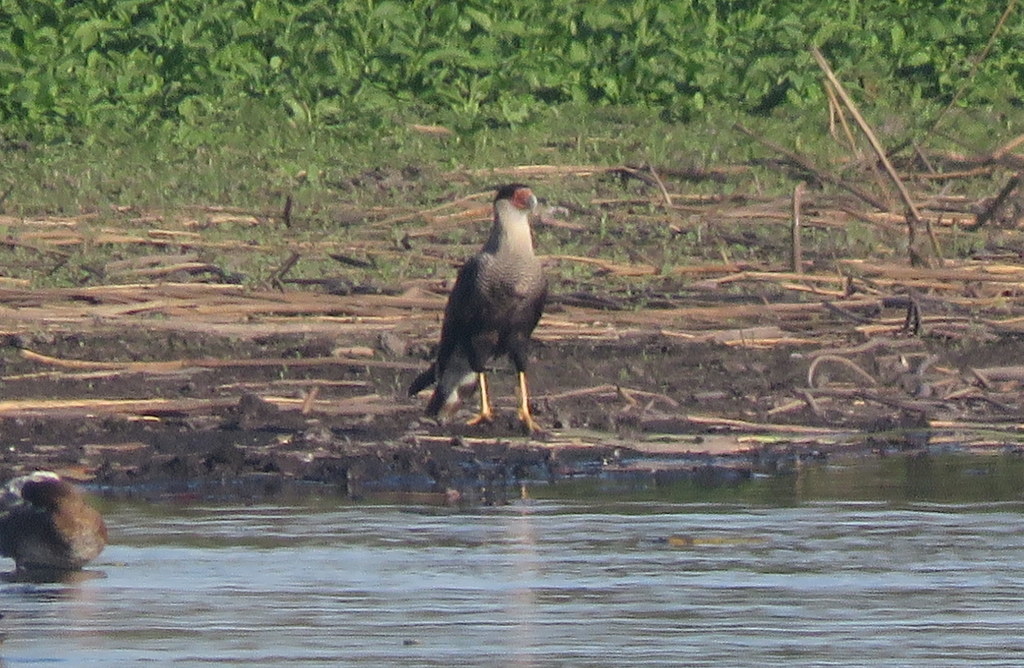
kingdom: Animalia
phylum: Chordata
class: Aves
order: Falconiformes
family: Falconidae
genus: Caracara
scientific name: Caracara plancus
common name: Southern caracara
